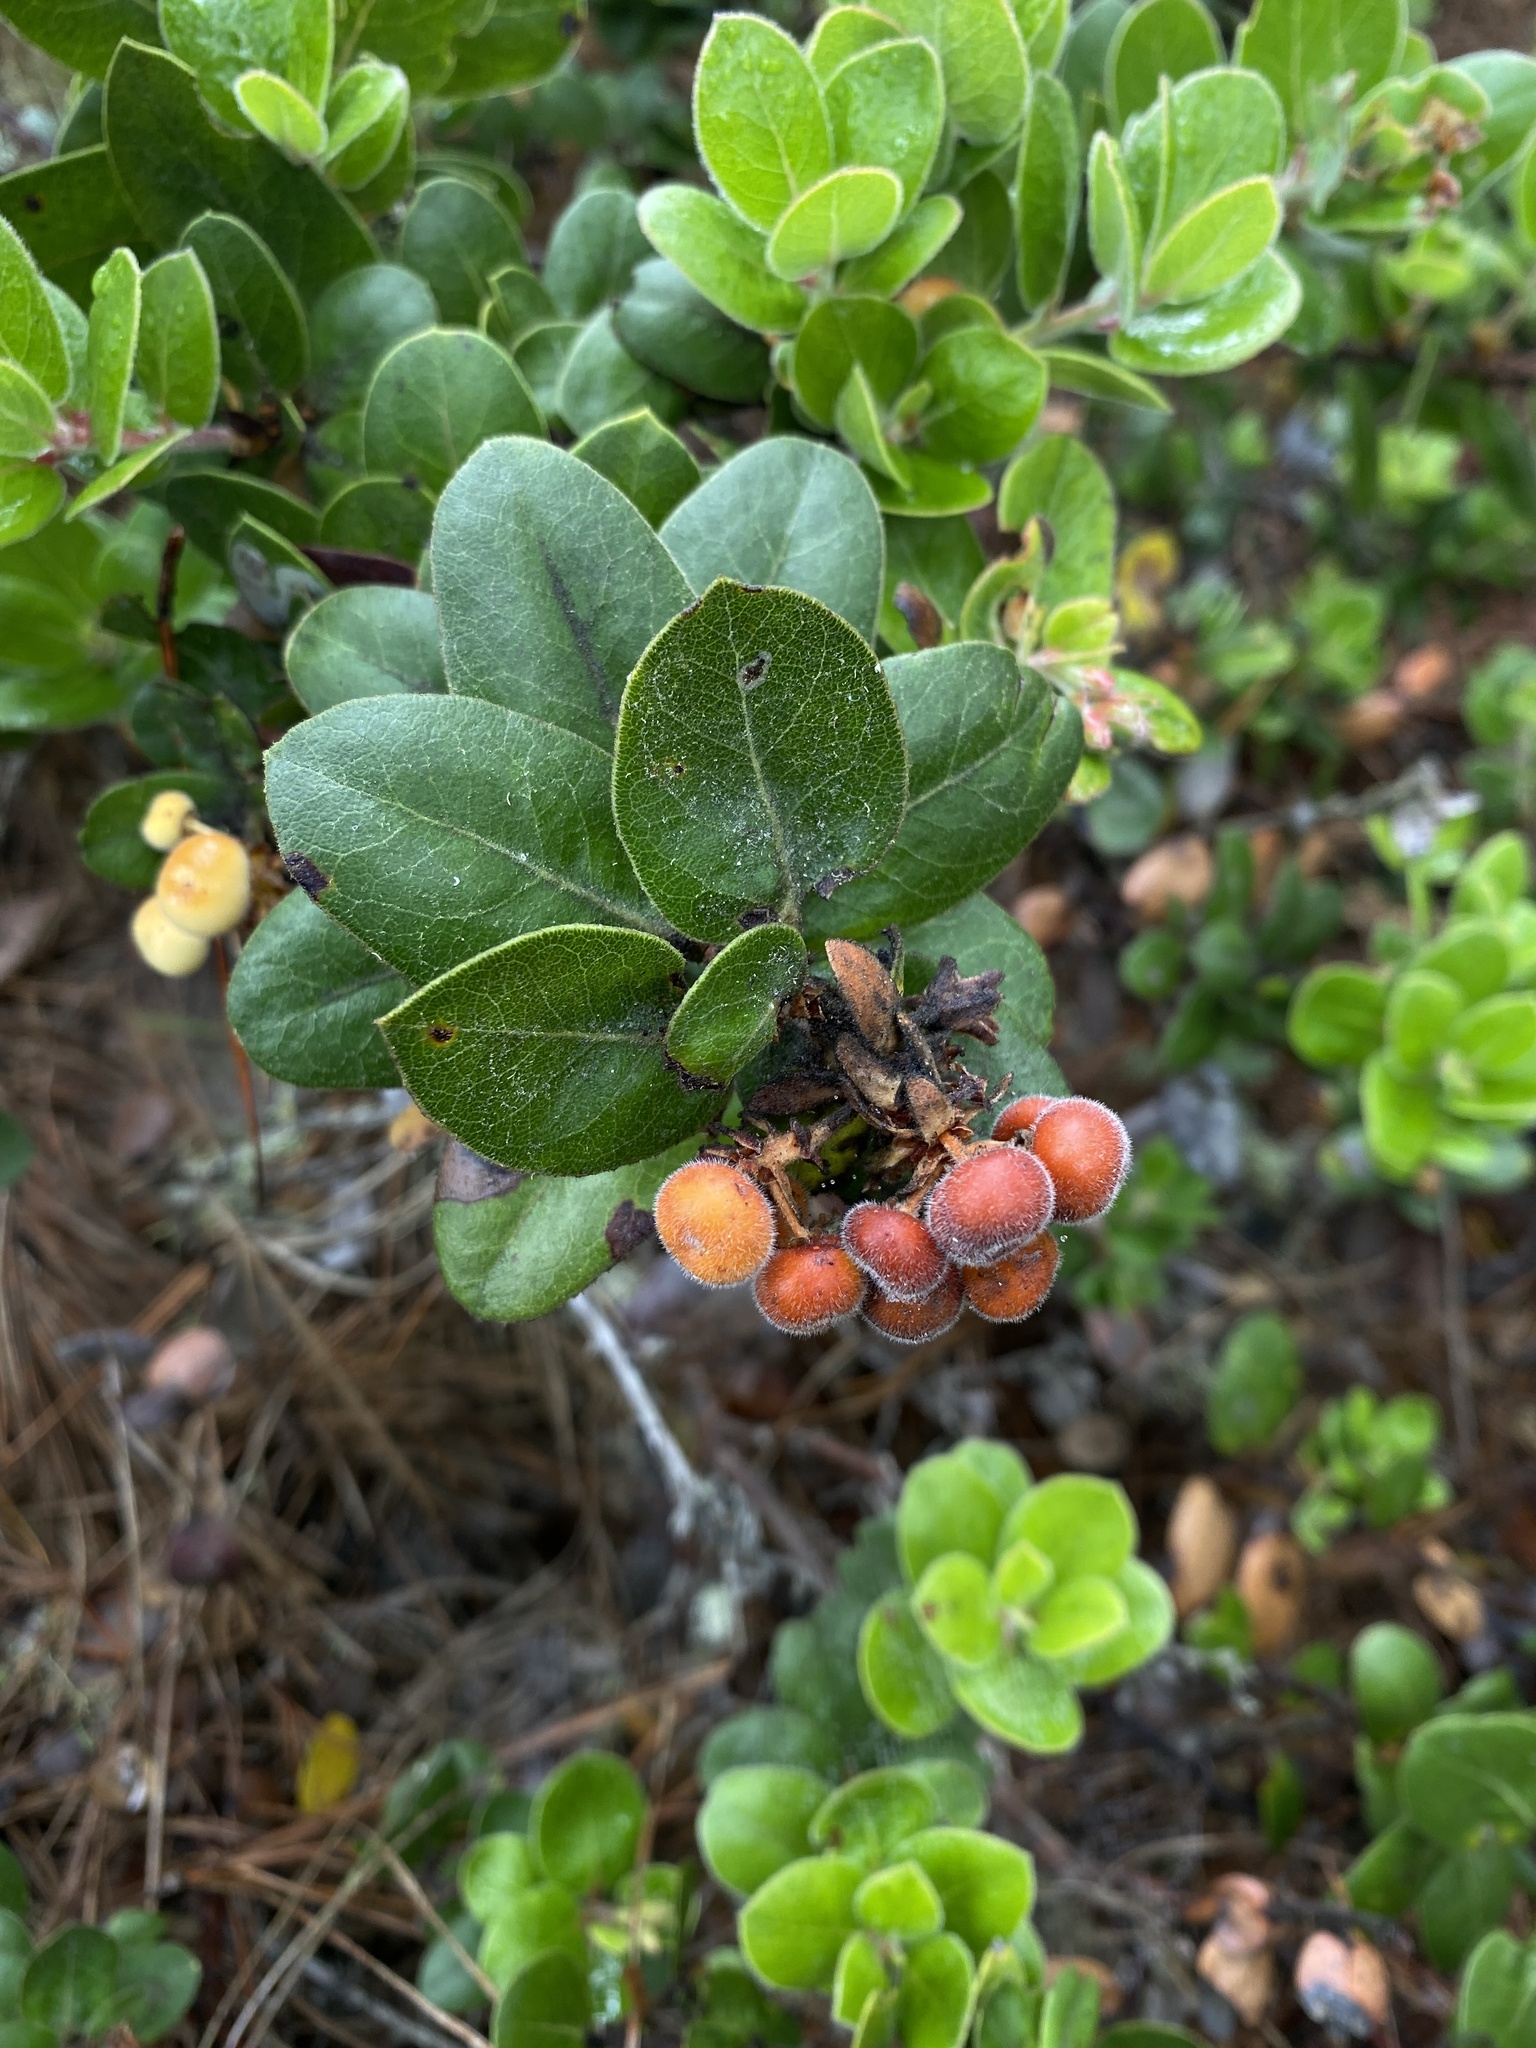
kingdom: Plantae
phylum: Tracheophyta
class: Magnoliopsida
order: Ericales
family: Ericaceae
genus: Arctostaphylos
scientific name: Arctostaphylos tomentosa
